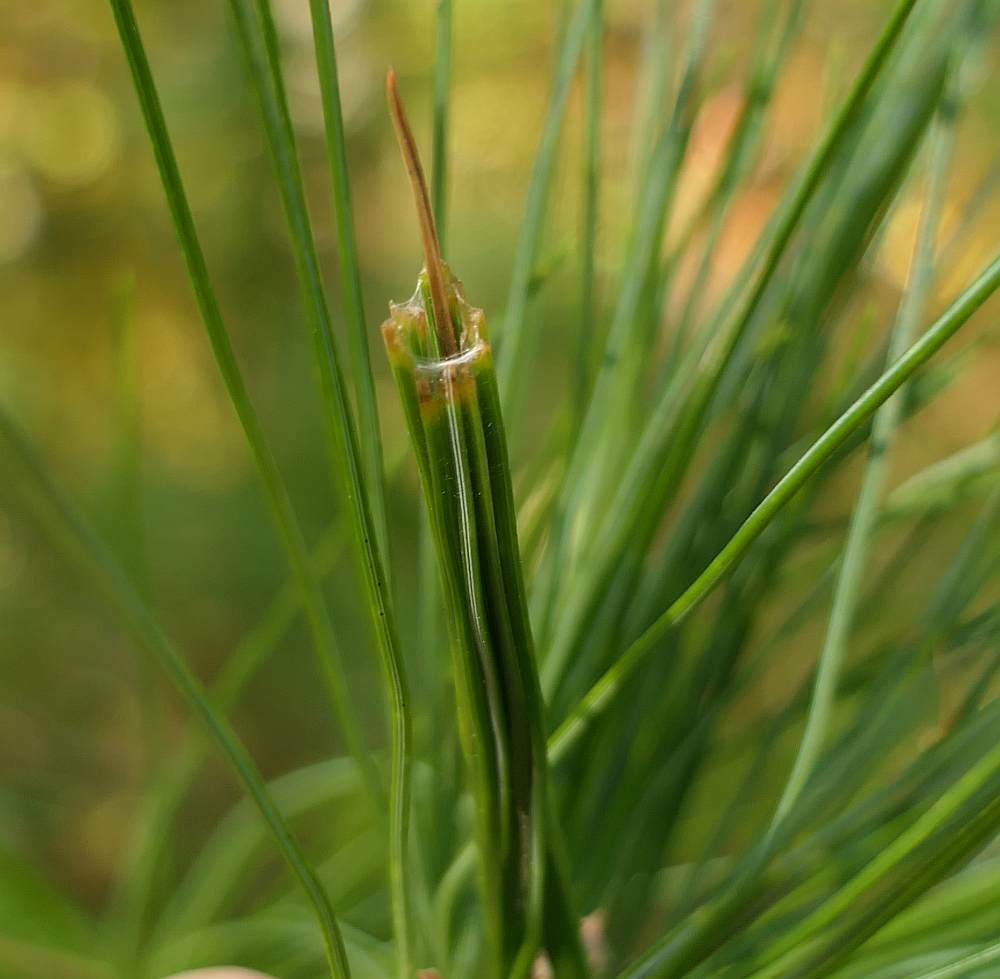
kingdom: Animalia
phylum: Arthropoda
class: Insecta
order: Lepidoptera
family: Tortricidae
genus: Argyrotaenia
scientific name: Argyrotaenia pinatubana
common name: Pine tube moth
